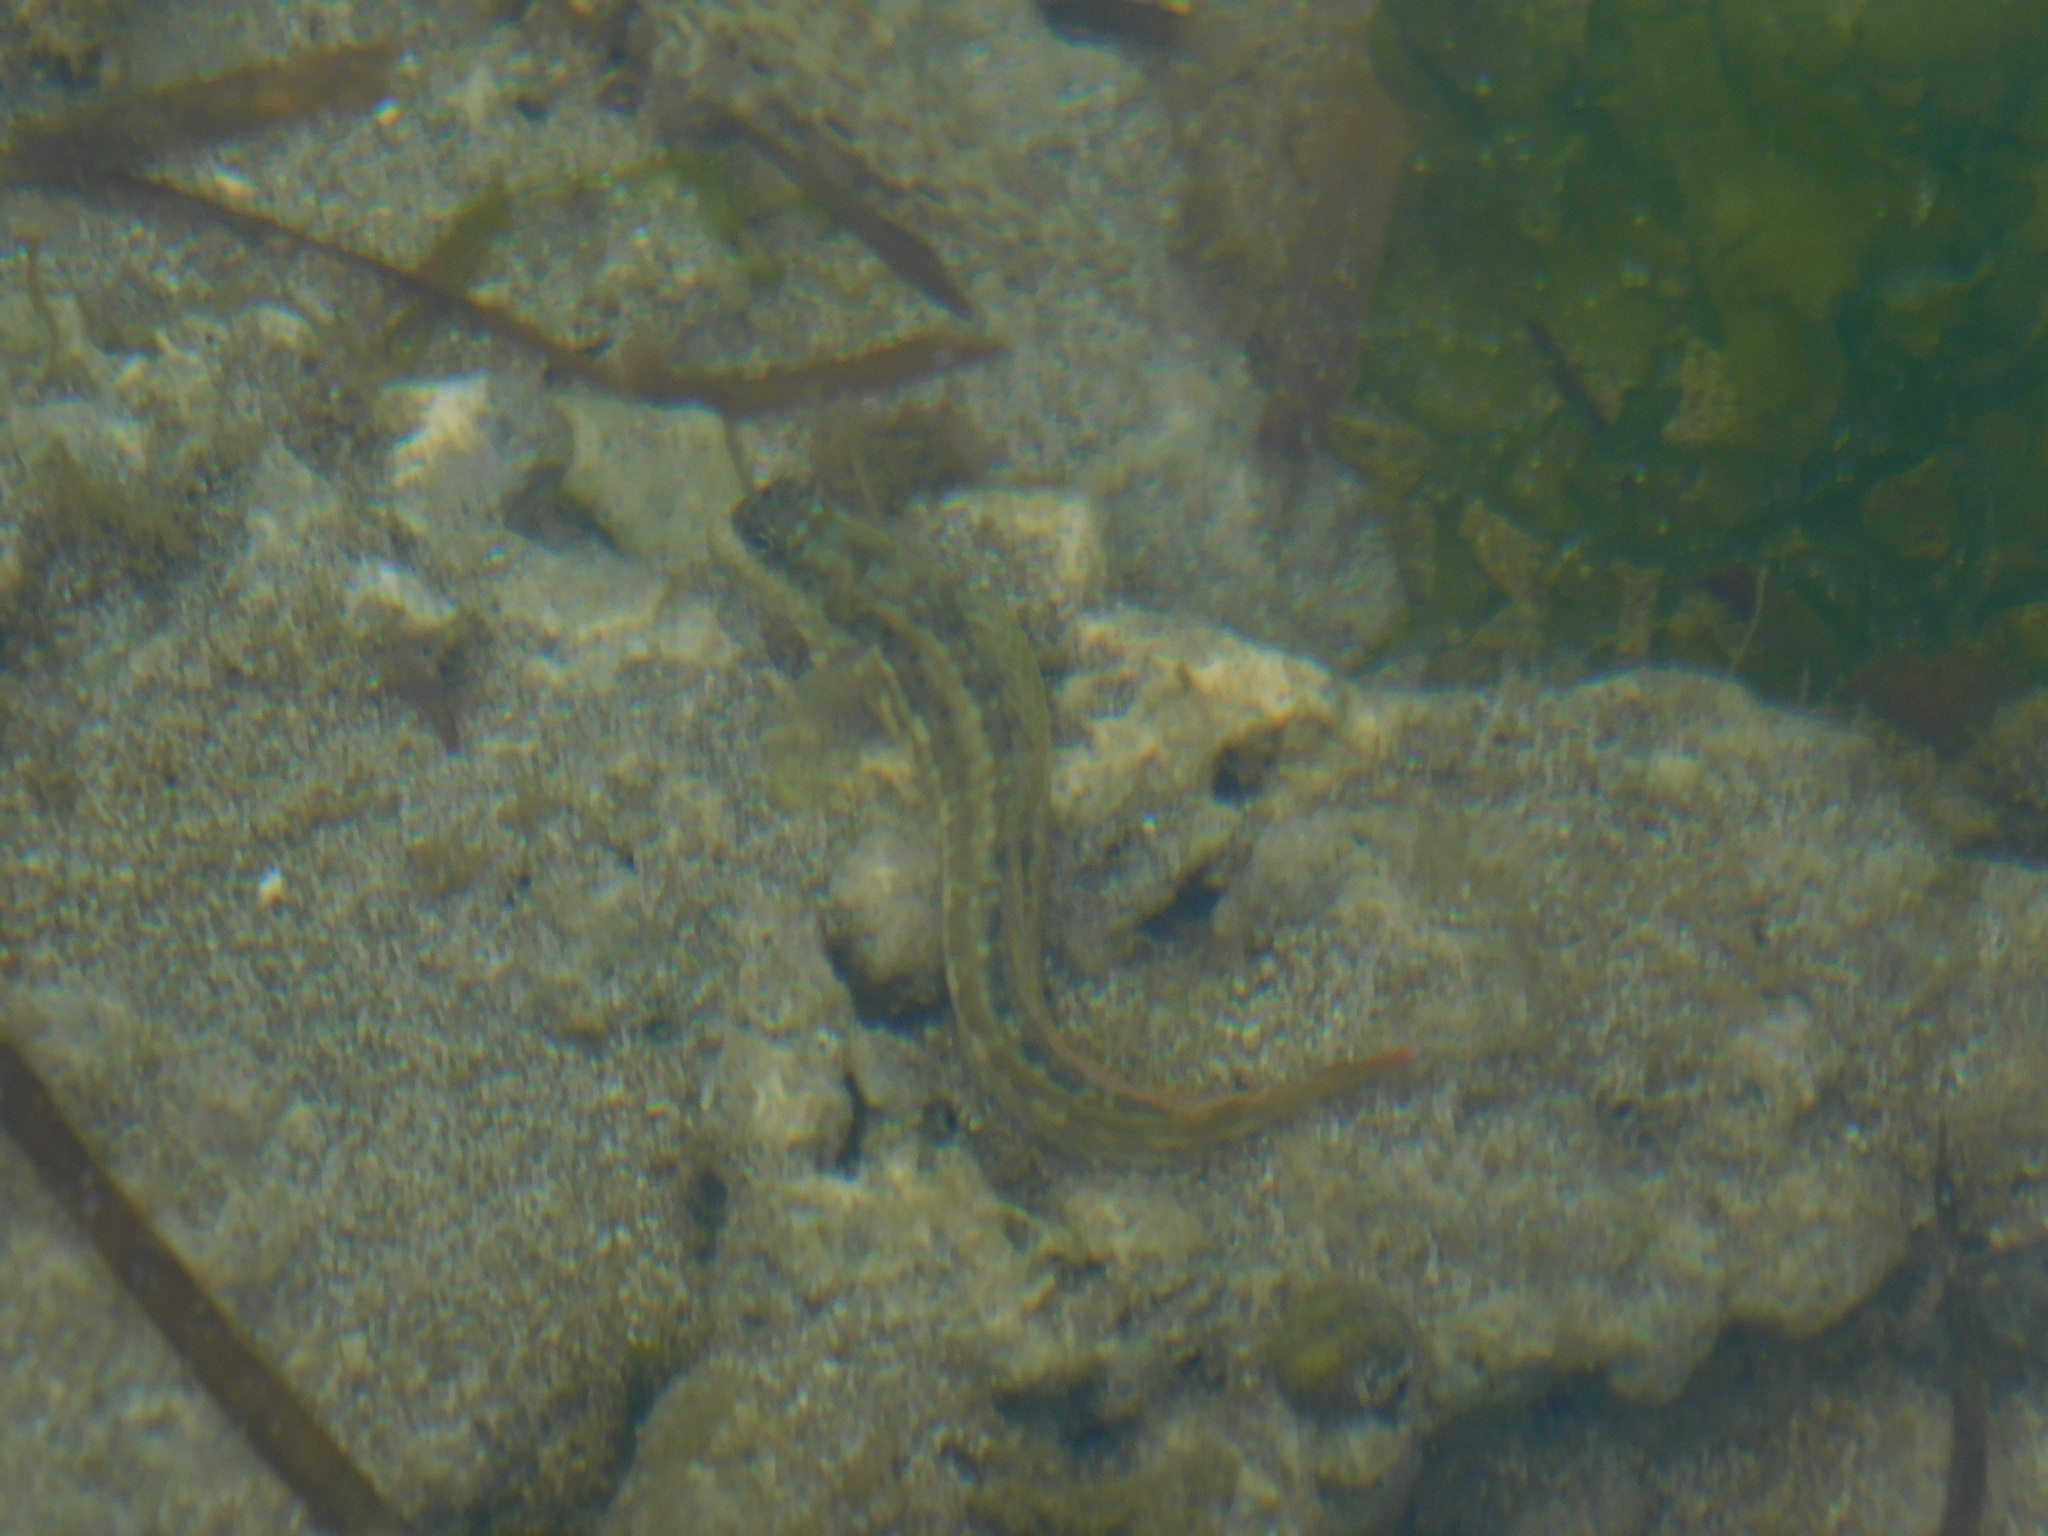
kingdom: Animalia
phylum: Chordata
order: Perciformes
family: Blenniidae
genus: Istiblennius
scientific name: Istiblennius dussumieri
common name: Dussumier's rockskipper
